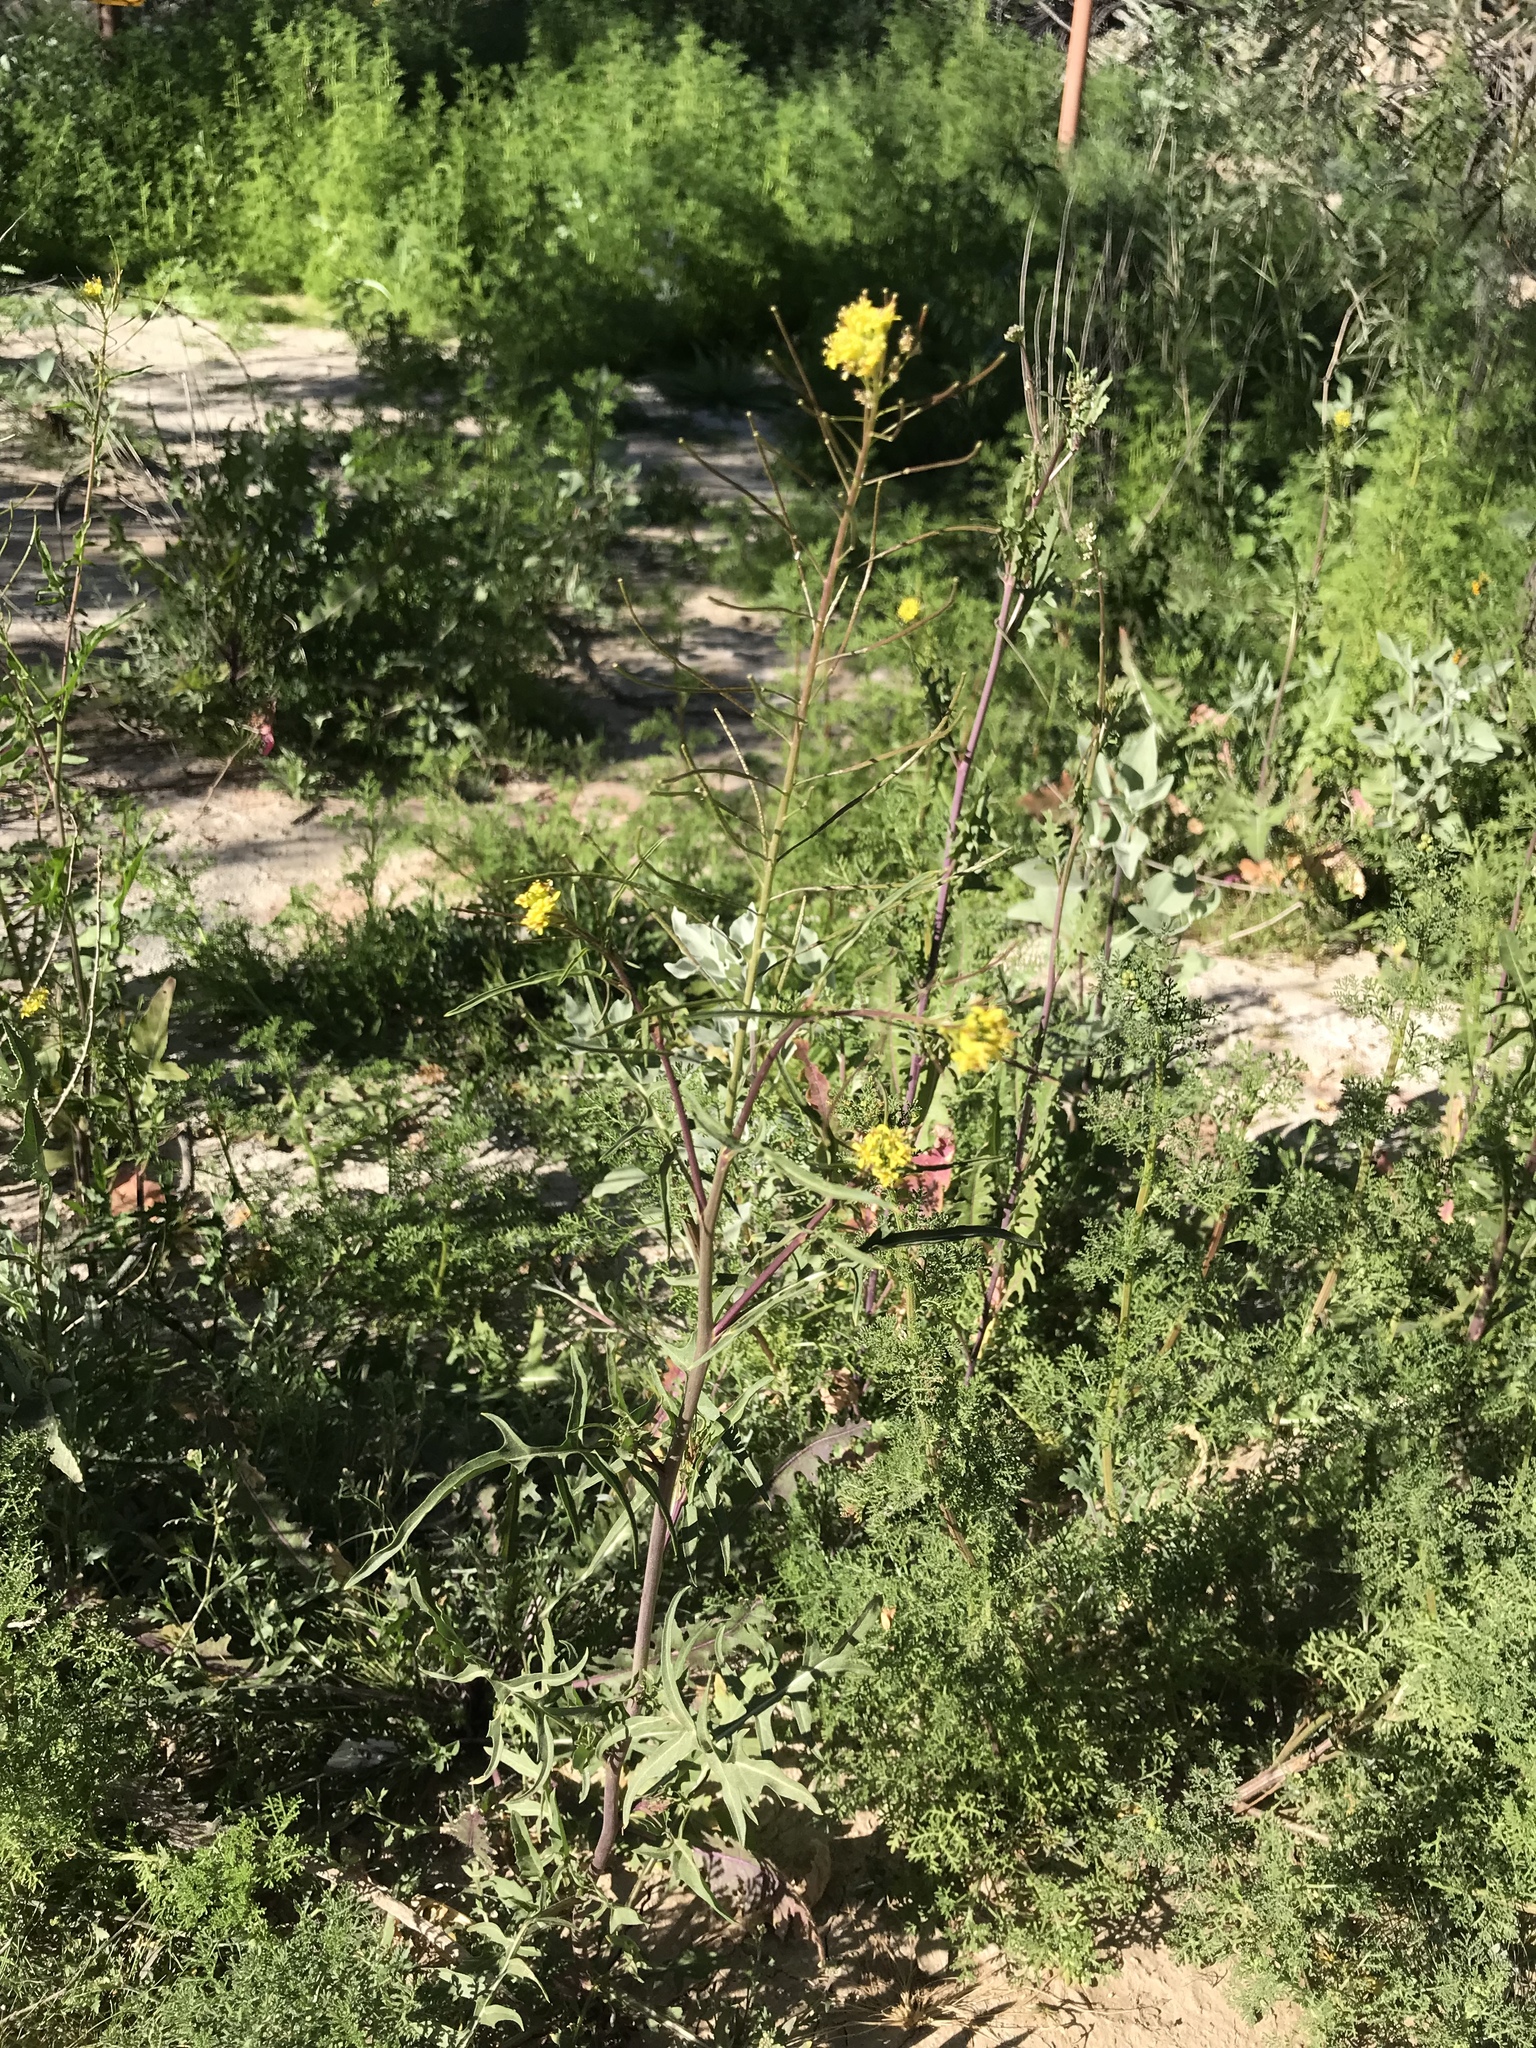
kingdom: Plantae
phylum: Tracheophyta
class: Magnoliopsida
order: Brassicales
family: Brassicaceae
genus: Sisymbrium
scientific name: Sisymbrium irio
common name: London rocket
